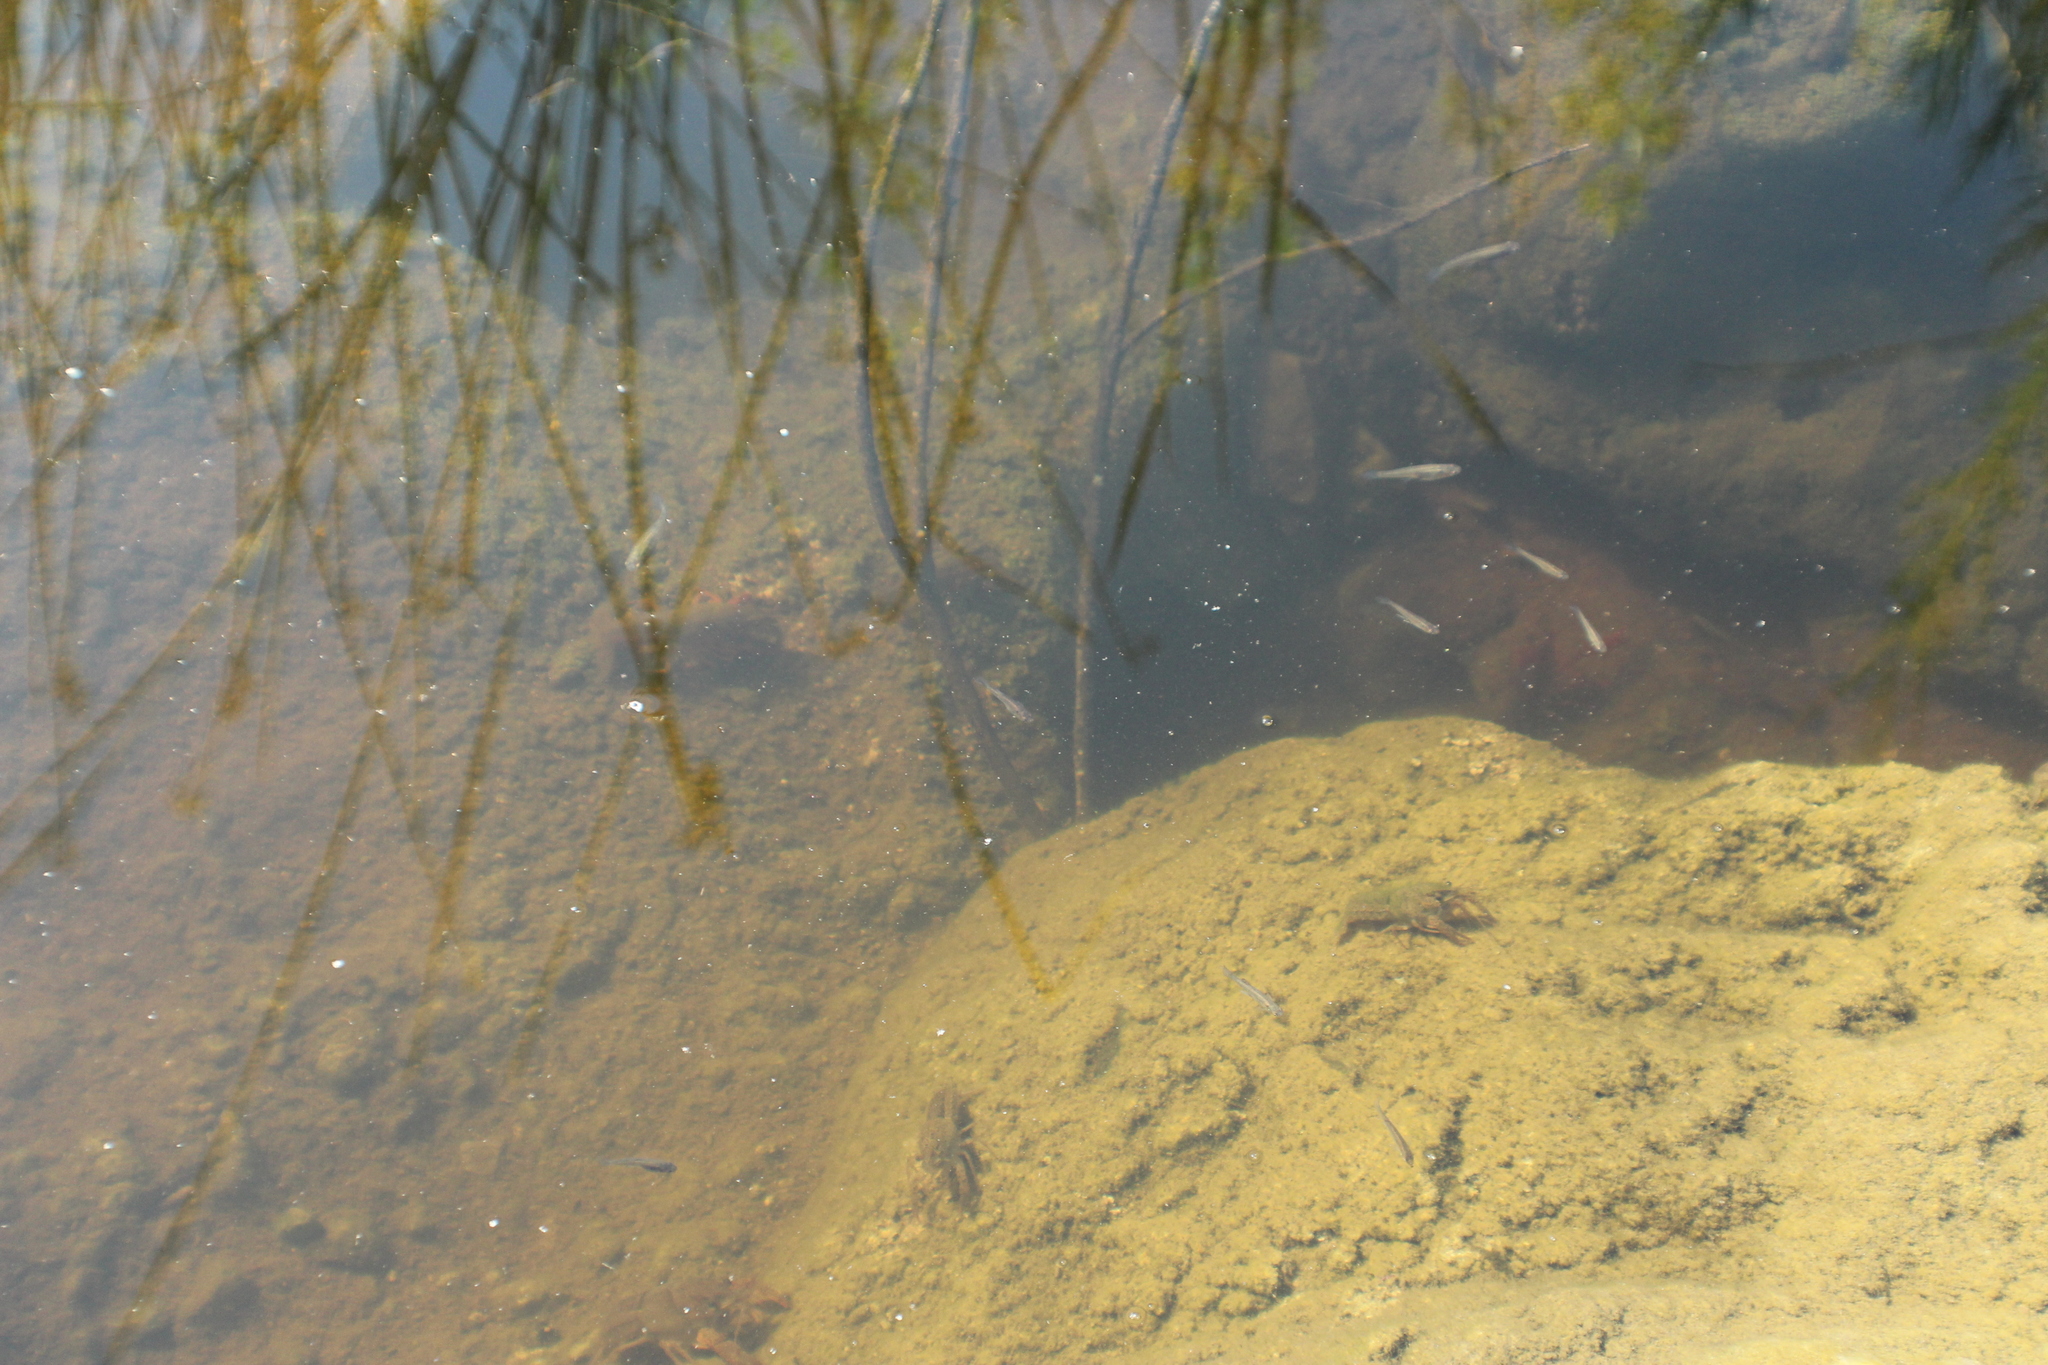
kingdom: Animalia
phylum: Arthropoda
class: Malacostraca
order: Decapoda
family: Cambaridae
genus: Procambarus
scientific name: Procambarus clarkii
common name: Red swamp crayfish
